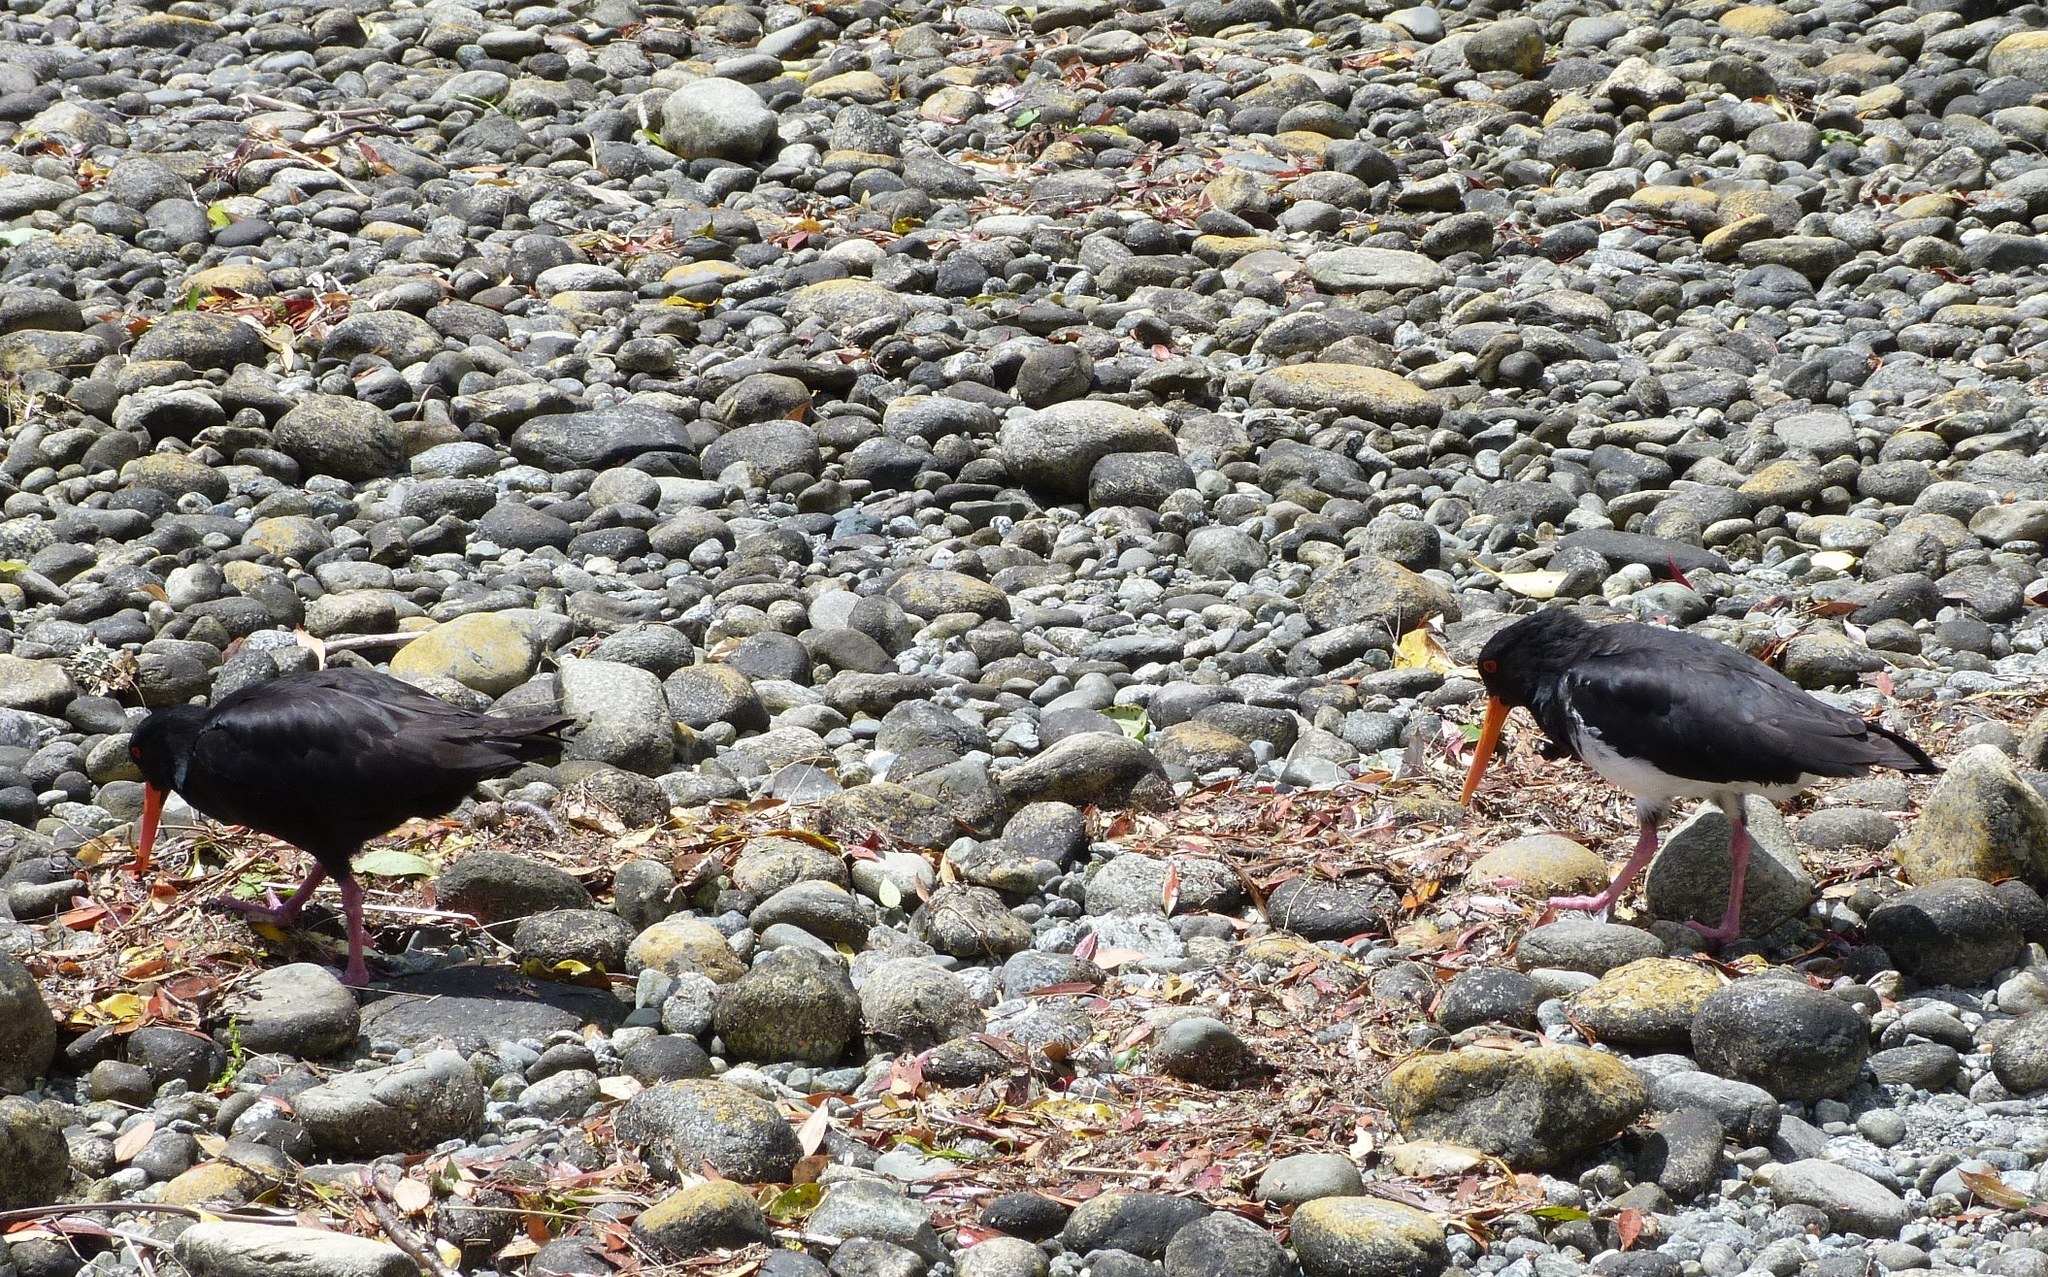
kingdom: Animalia
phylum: Chordata
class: Aves
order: Charadriiformes
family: Haematopodidae
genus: Haematopus
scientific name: Haematopus unicolor
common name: Variable oystercatcher
